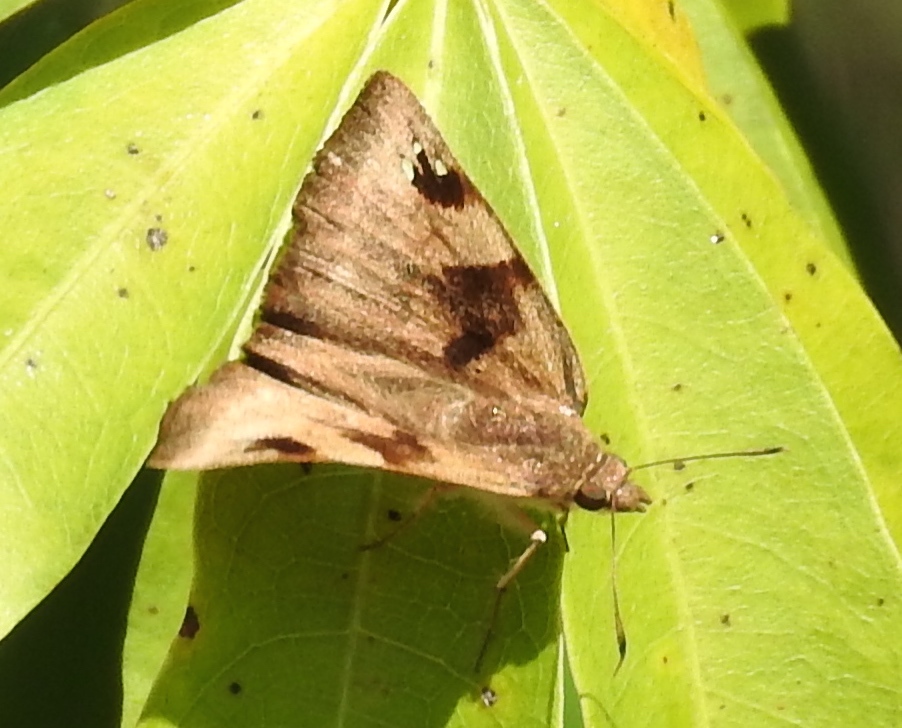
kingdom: Animalia
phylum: Arthropoda
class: Insecta
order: Lepidoptera
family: Hesperiidae
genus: Arteurotia
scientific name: Arteurotia tractipennis
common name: Starred skipper
